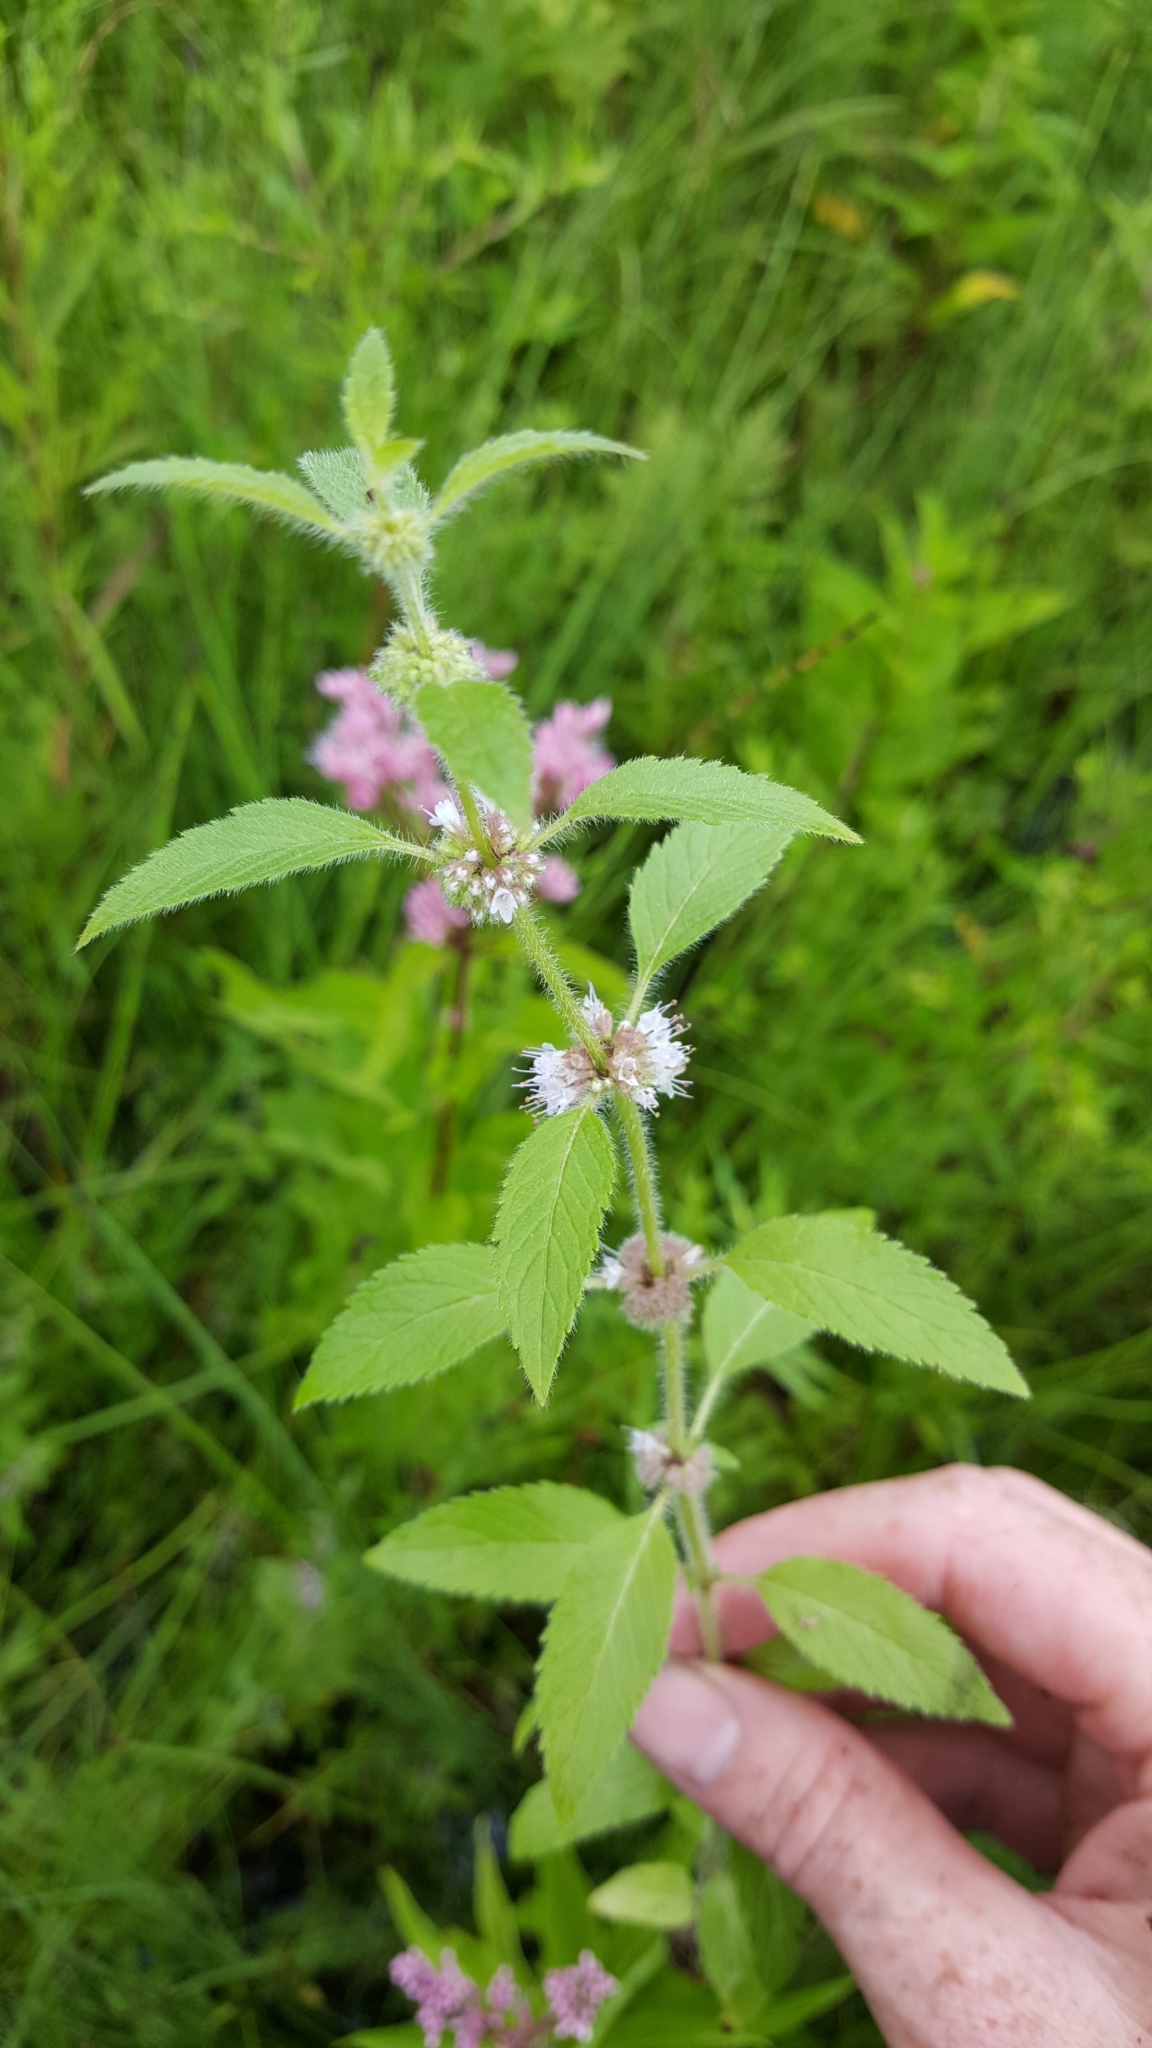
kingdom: Plantae
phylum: Tracheophyta
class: Magnoliopsida
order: Lamiales
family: Lamiaceae
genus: Mentha
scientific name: Mentha canadensis
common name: American corn mint
